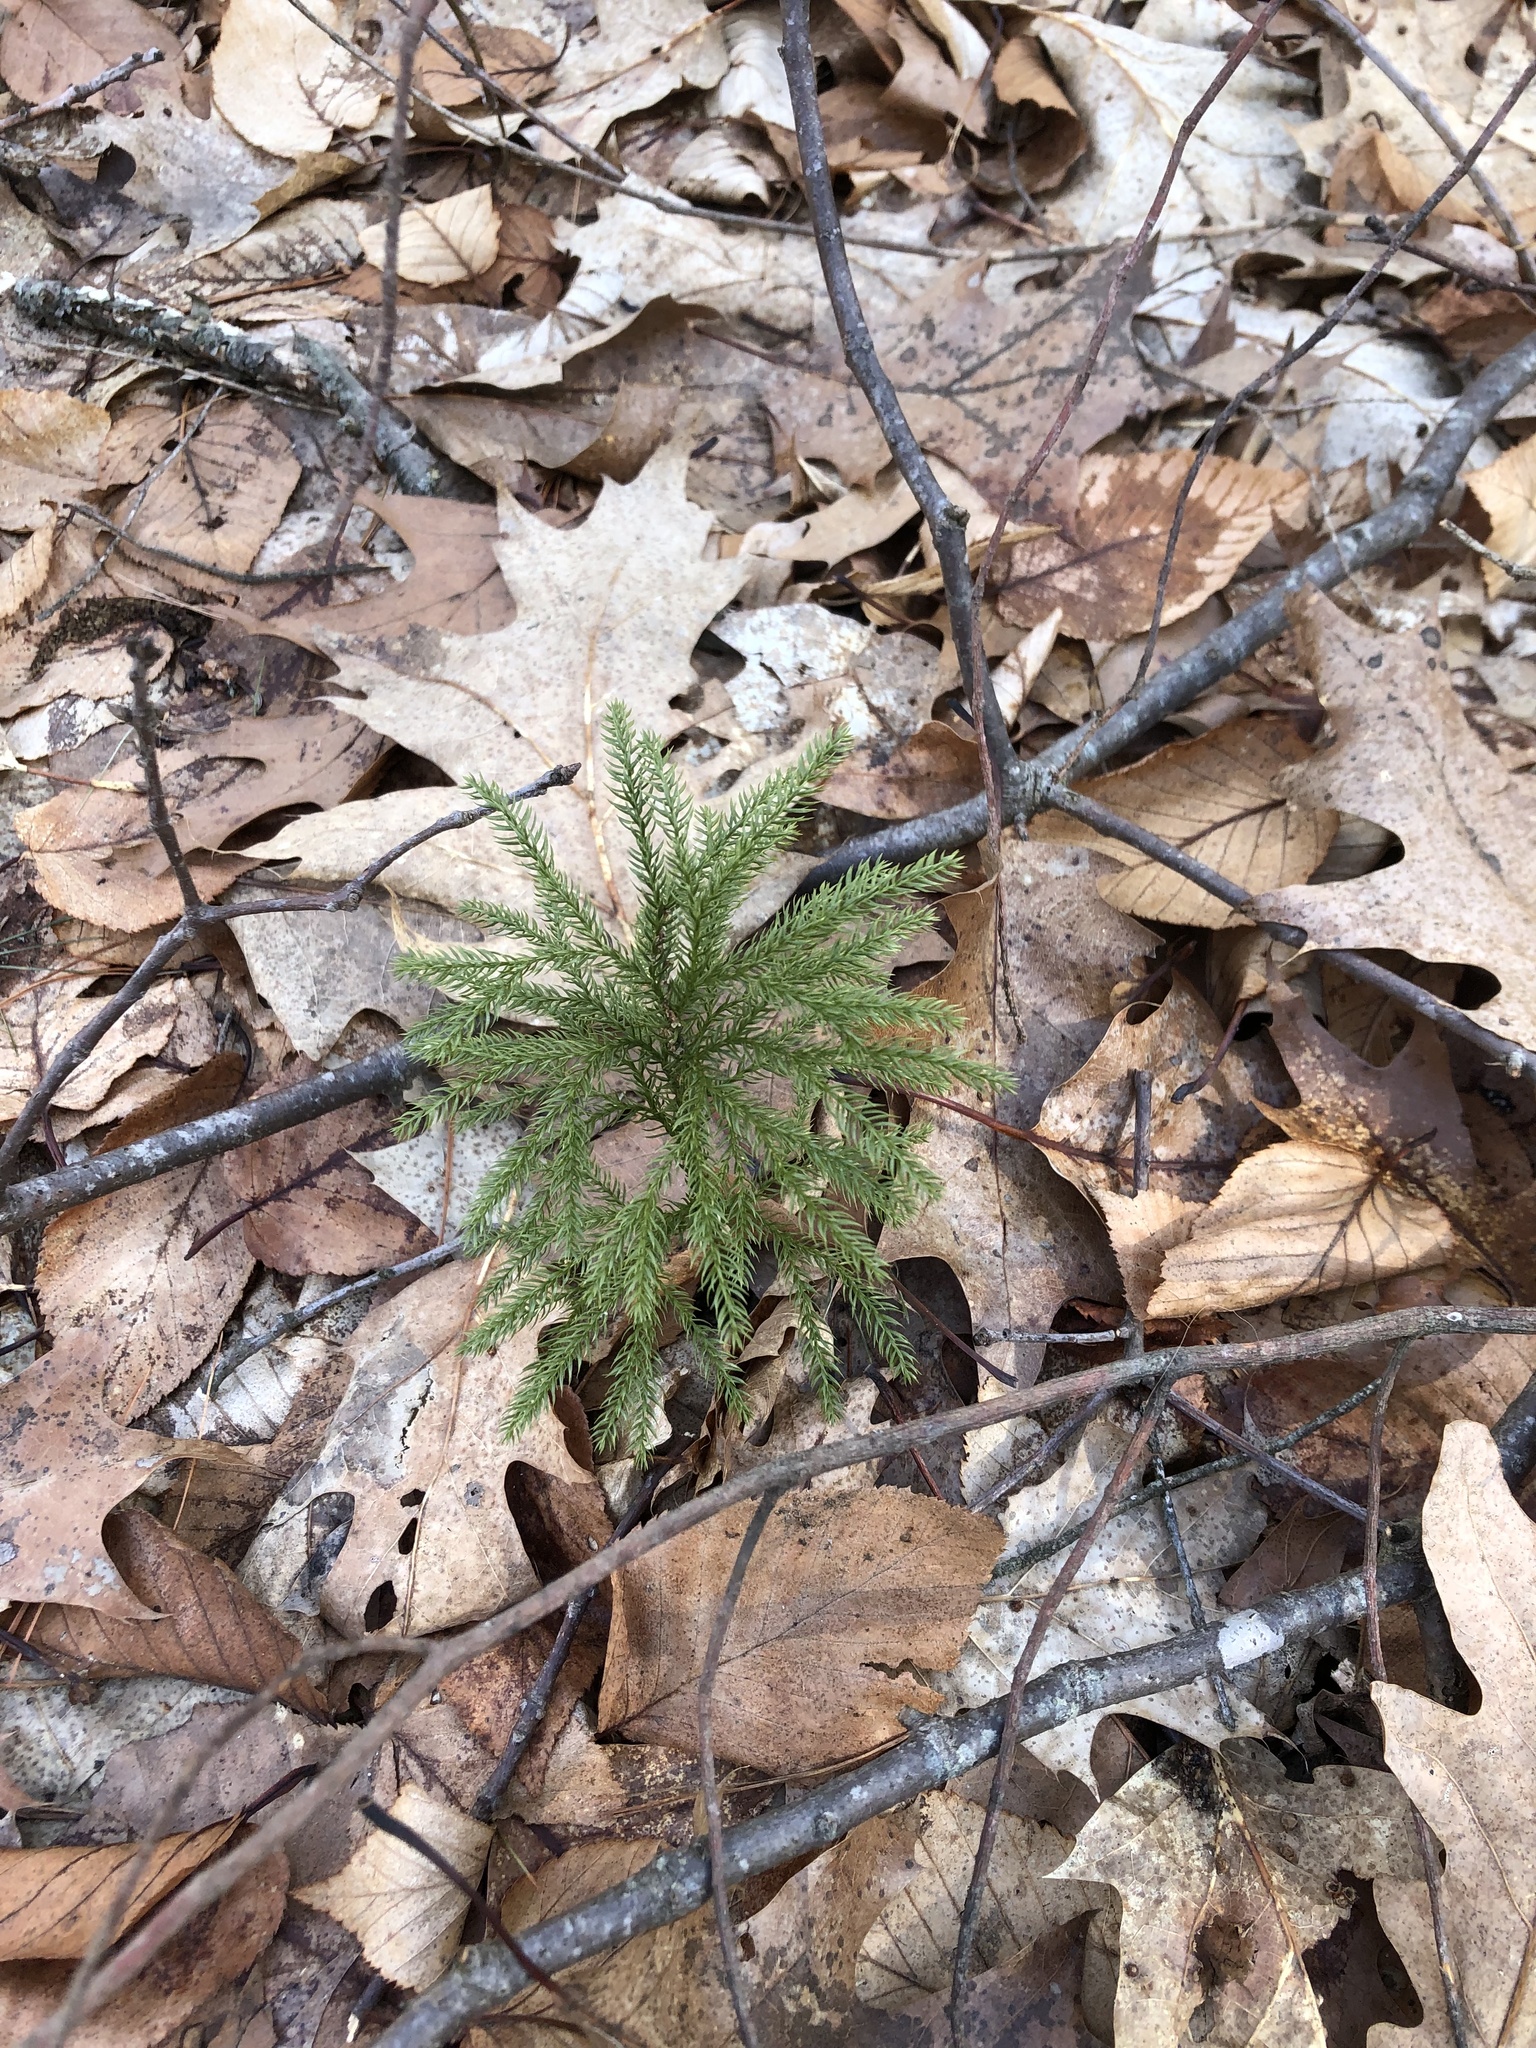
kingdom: Plantae
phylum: Tracheophyta
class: Lycopodiopsida
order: Lycopodiales
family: Lycopodiaceae
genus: Dendrolycopodium
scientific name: Dendrolycopodium hickeyi
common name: Hickey's clubmoss
